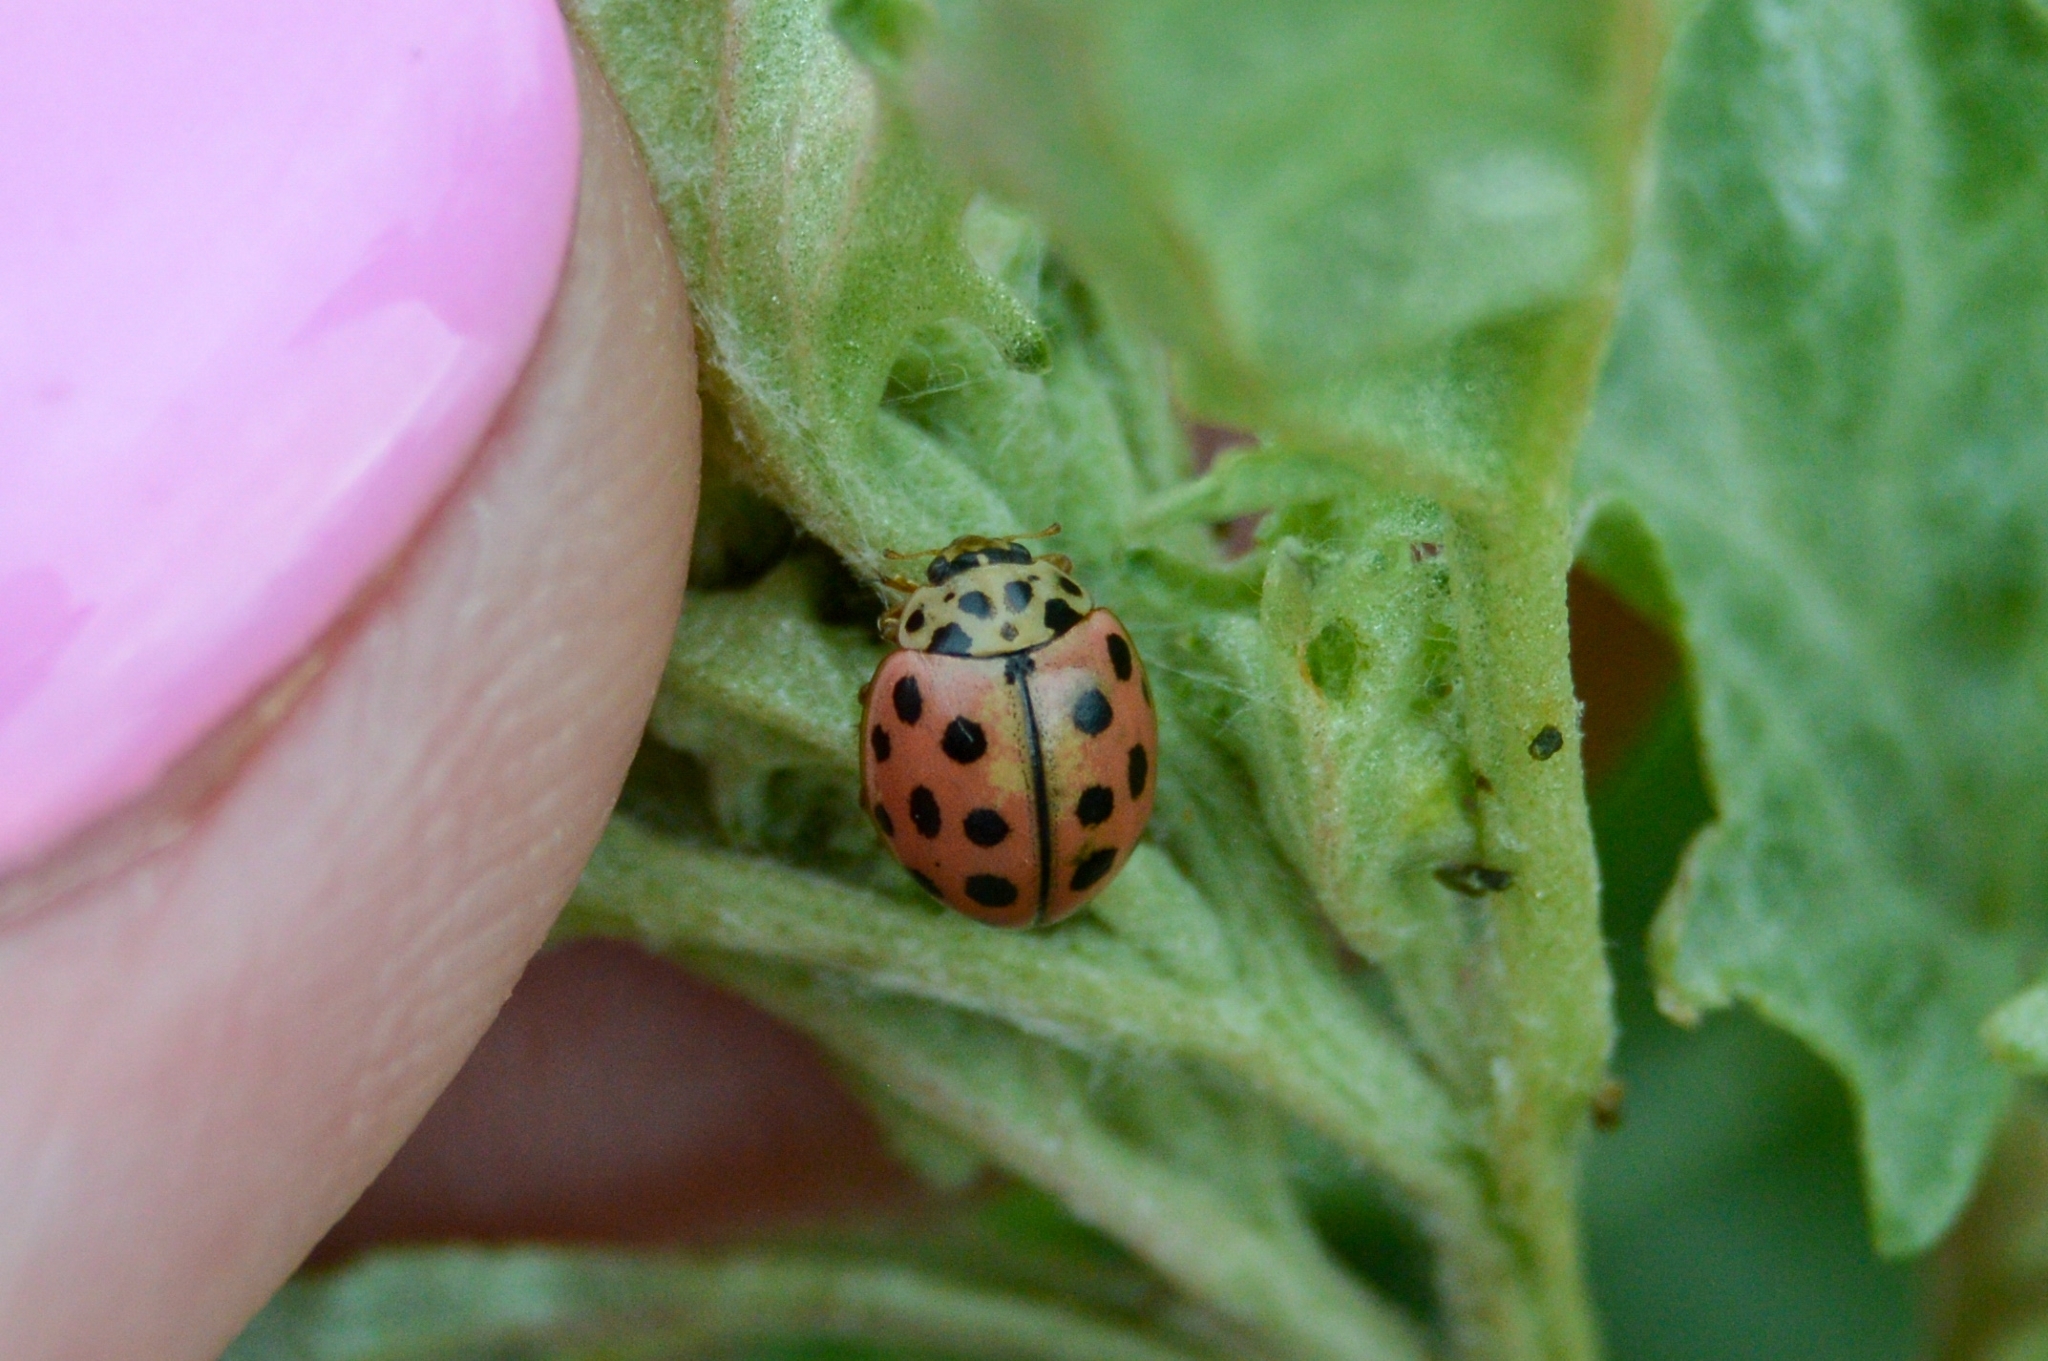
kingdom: Animalia
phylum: Arthropoda
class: Insecta
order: Coleoptera
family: Coccinellidae
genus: Bulaea
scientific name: Bulaea lichatschovi
